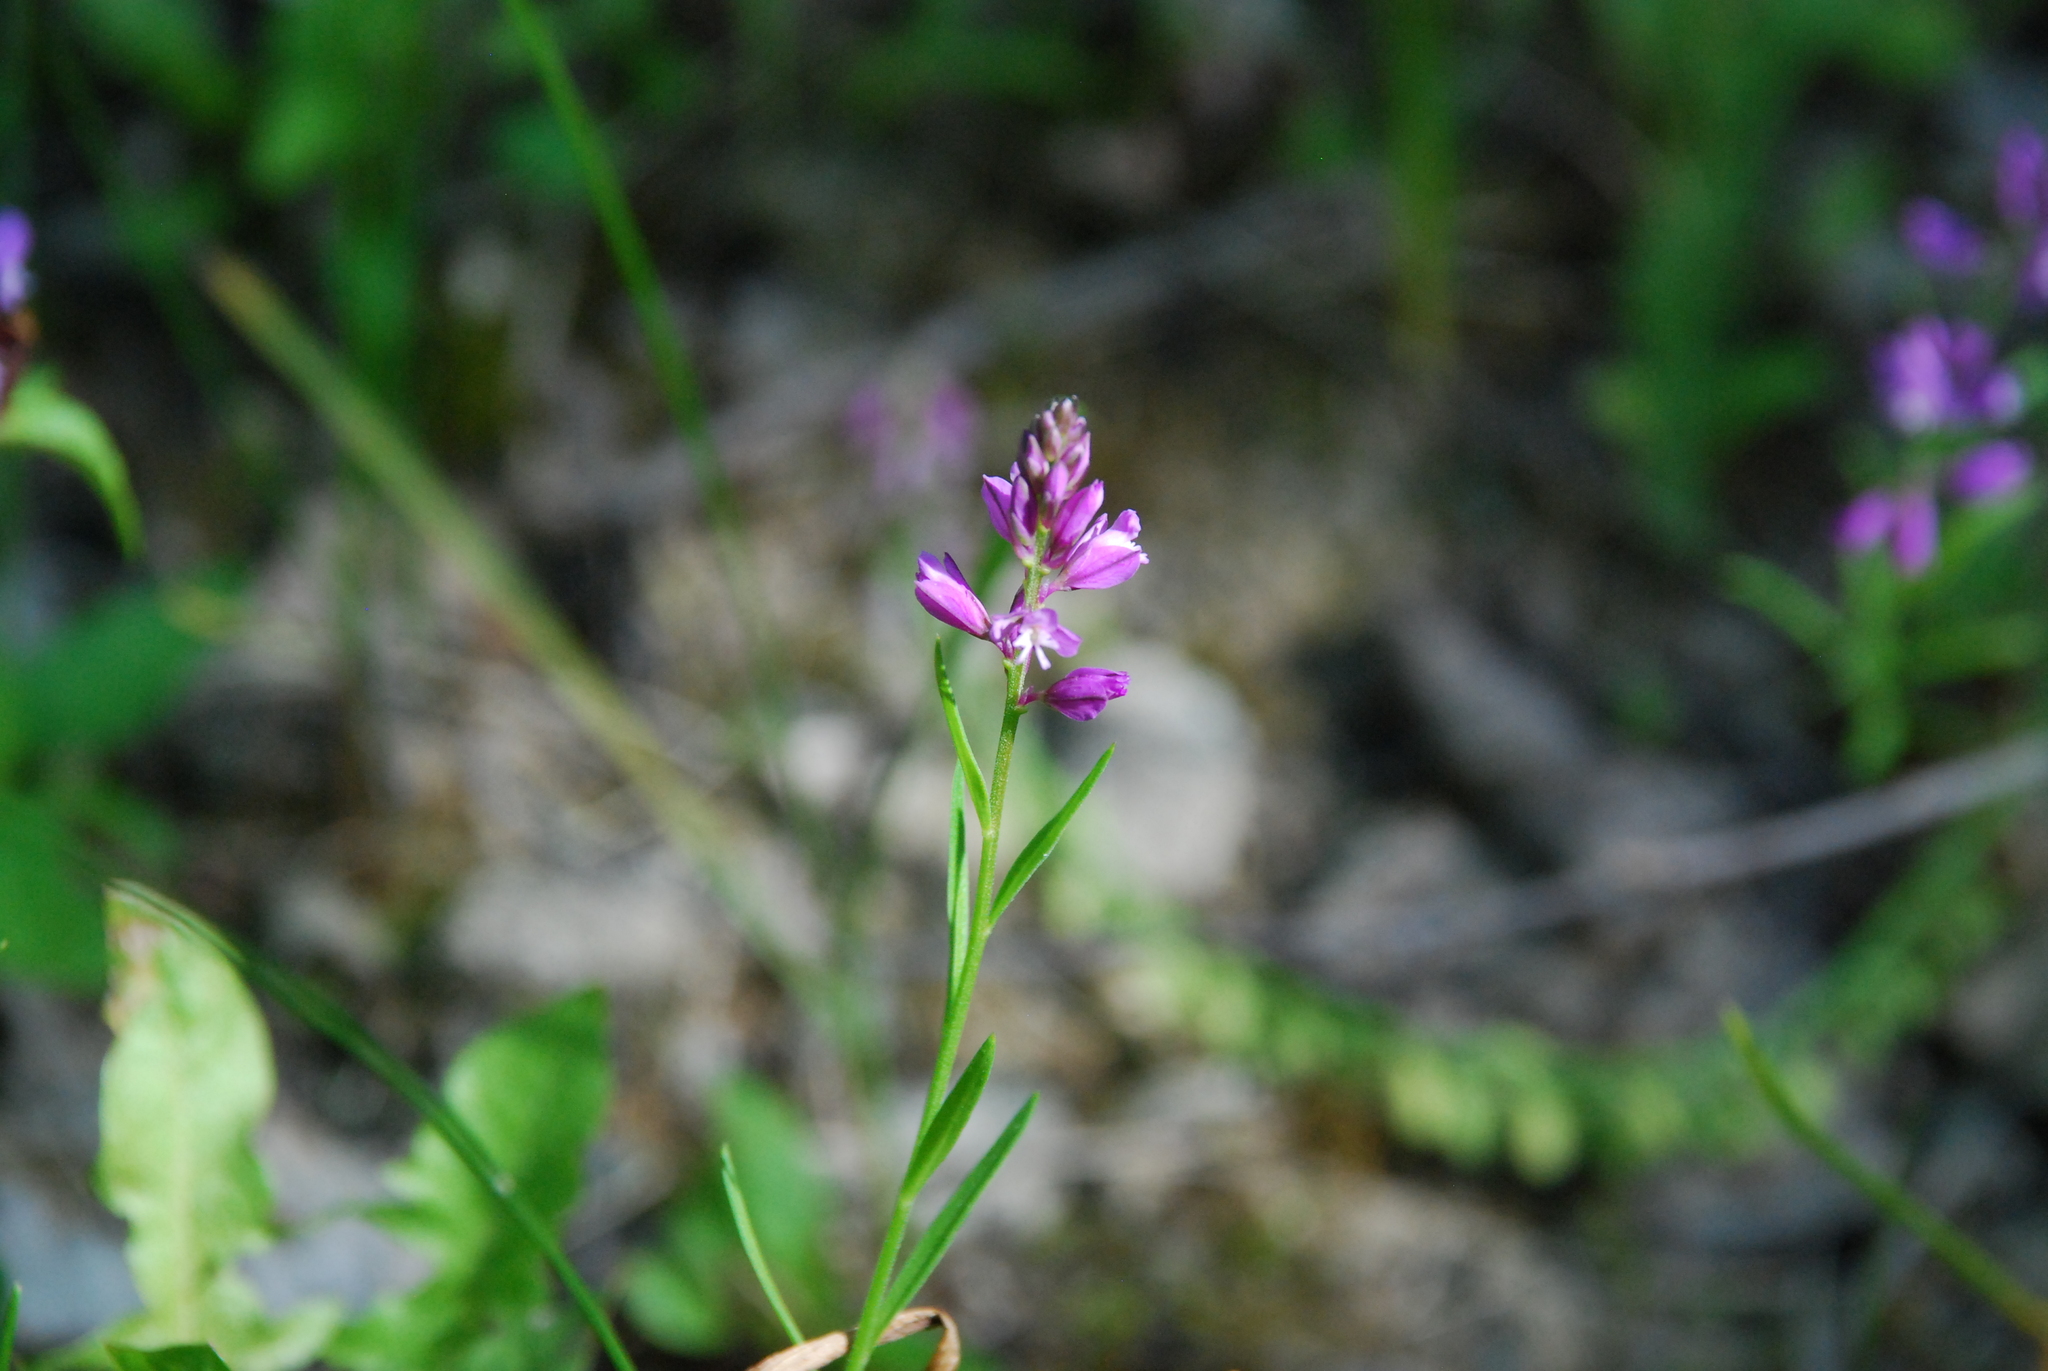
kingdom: Plantae
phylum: Tracheophyta
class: Magnoliopsida
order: Fabales
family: Polygalaceae
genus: Polygala
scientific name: Polygala comosa
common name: Tufted milkwort
